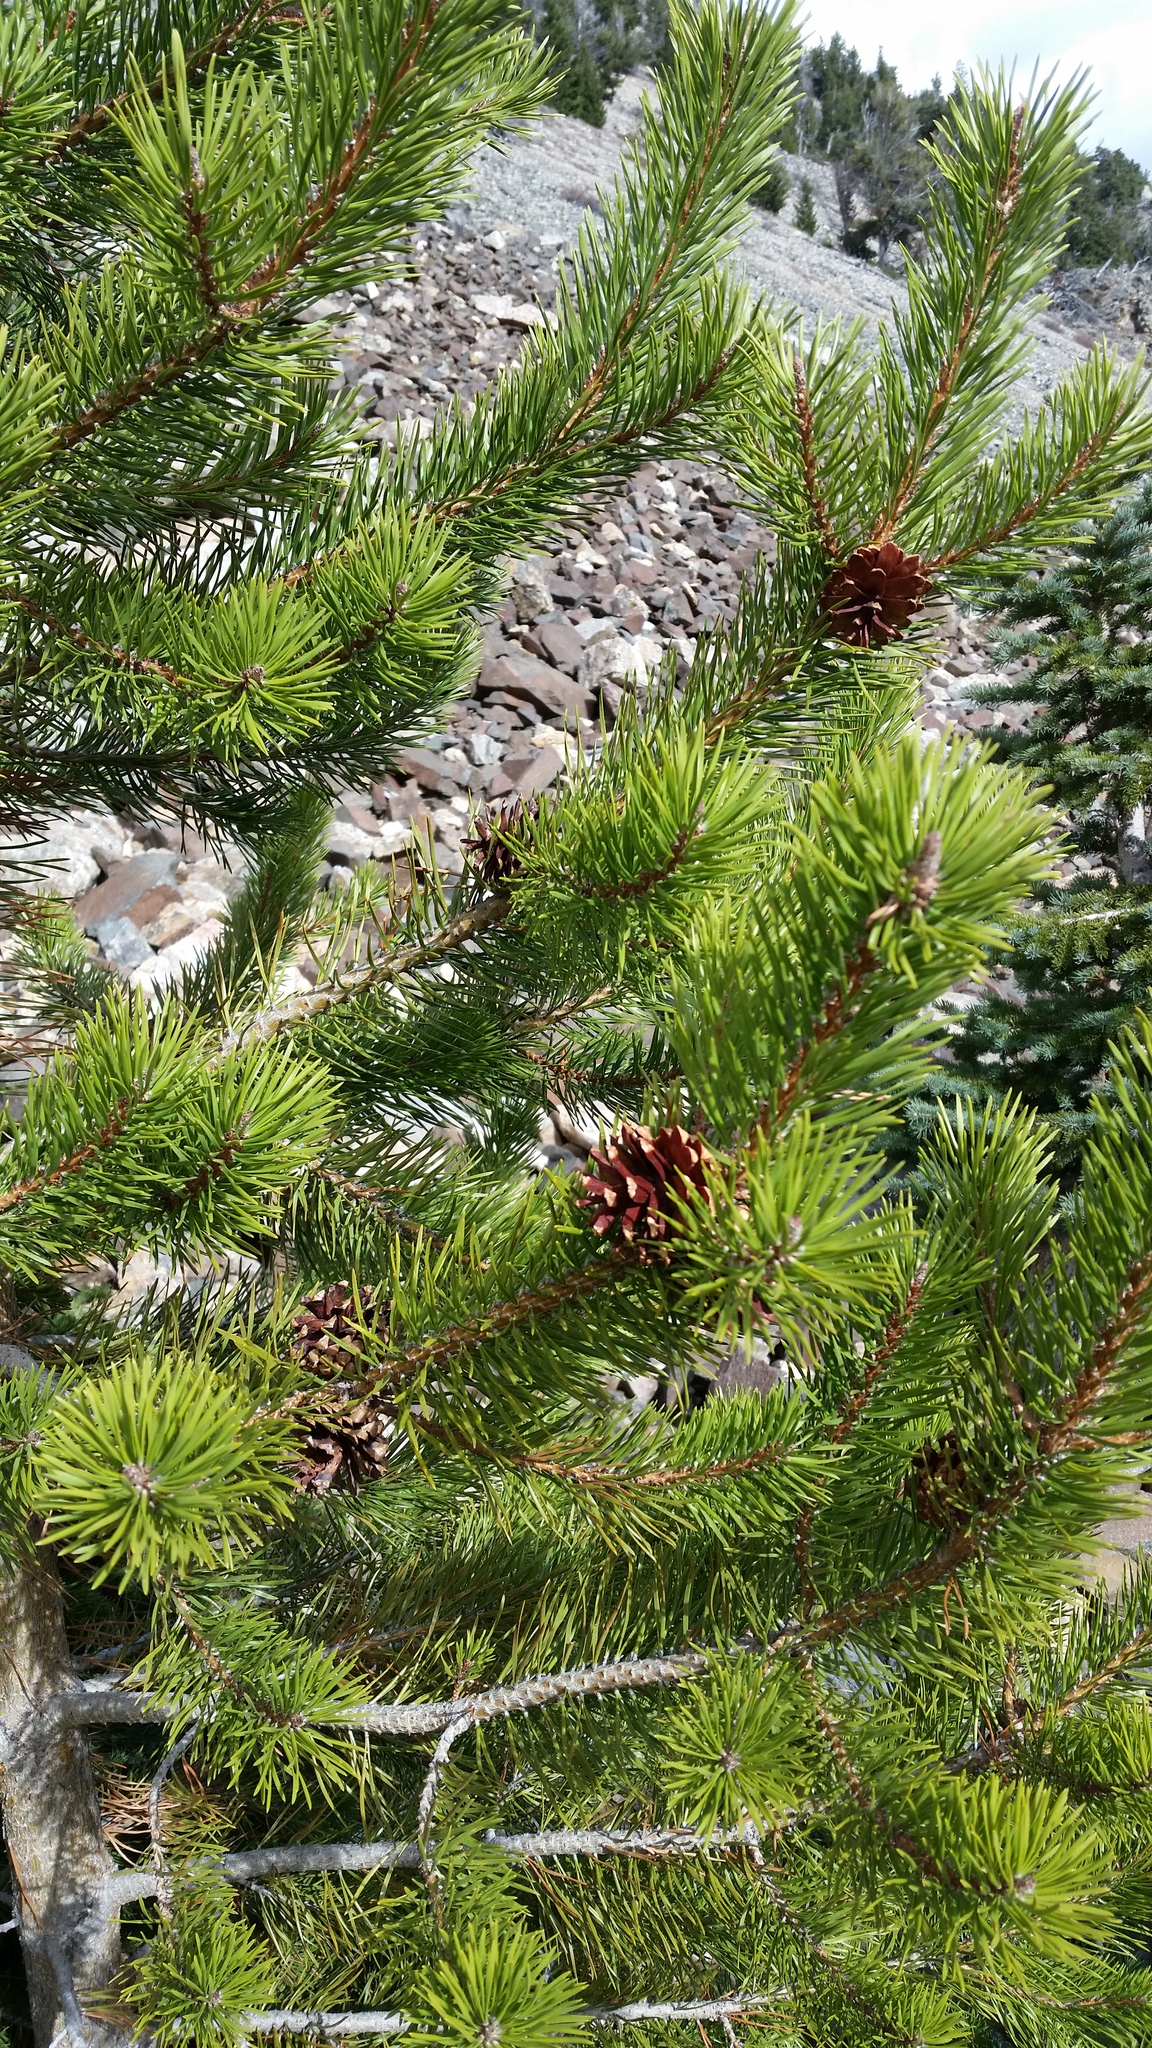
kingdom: Plantae
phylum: Tracheophyta
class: Pinopsida
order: Pinales
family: Pinaceae
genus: Pinus
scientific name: Pinus contorta
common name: Lodgepole pine
